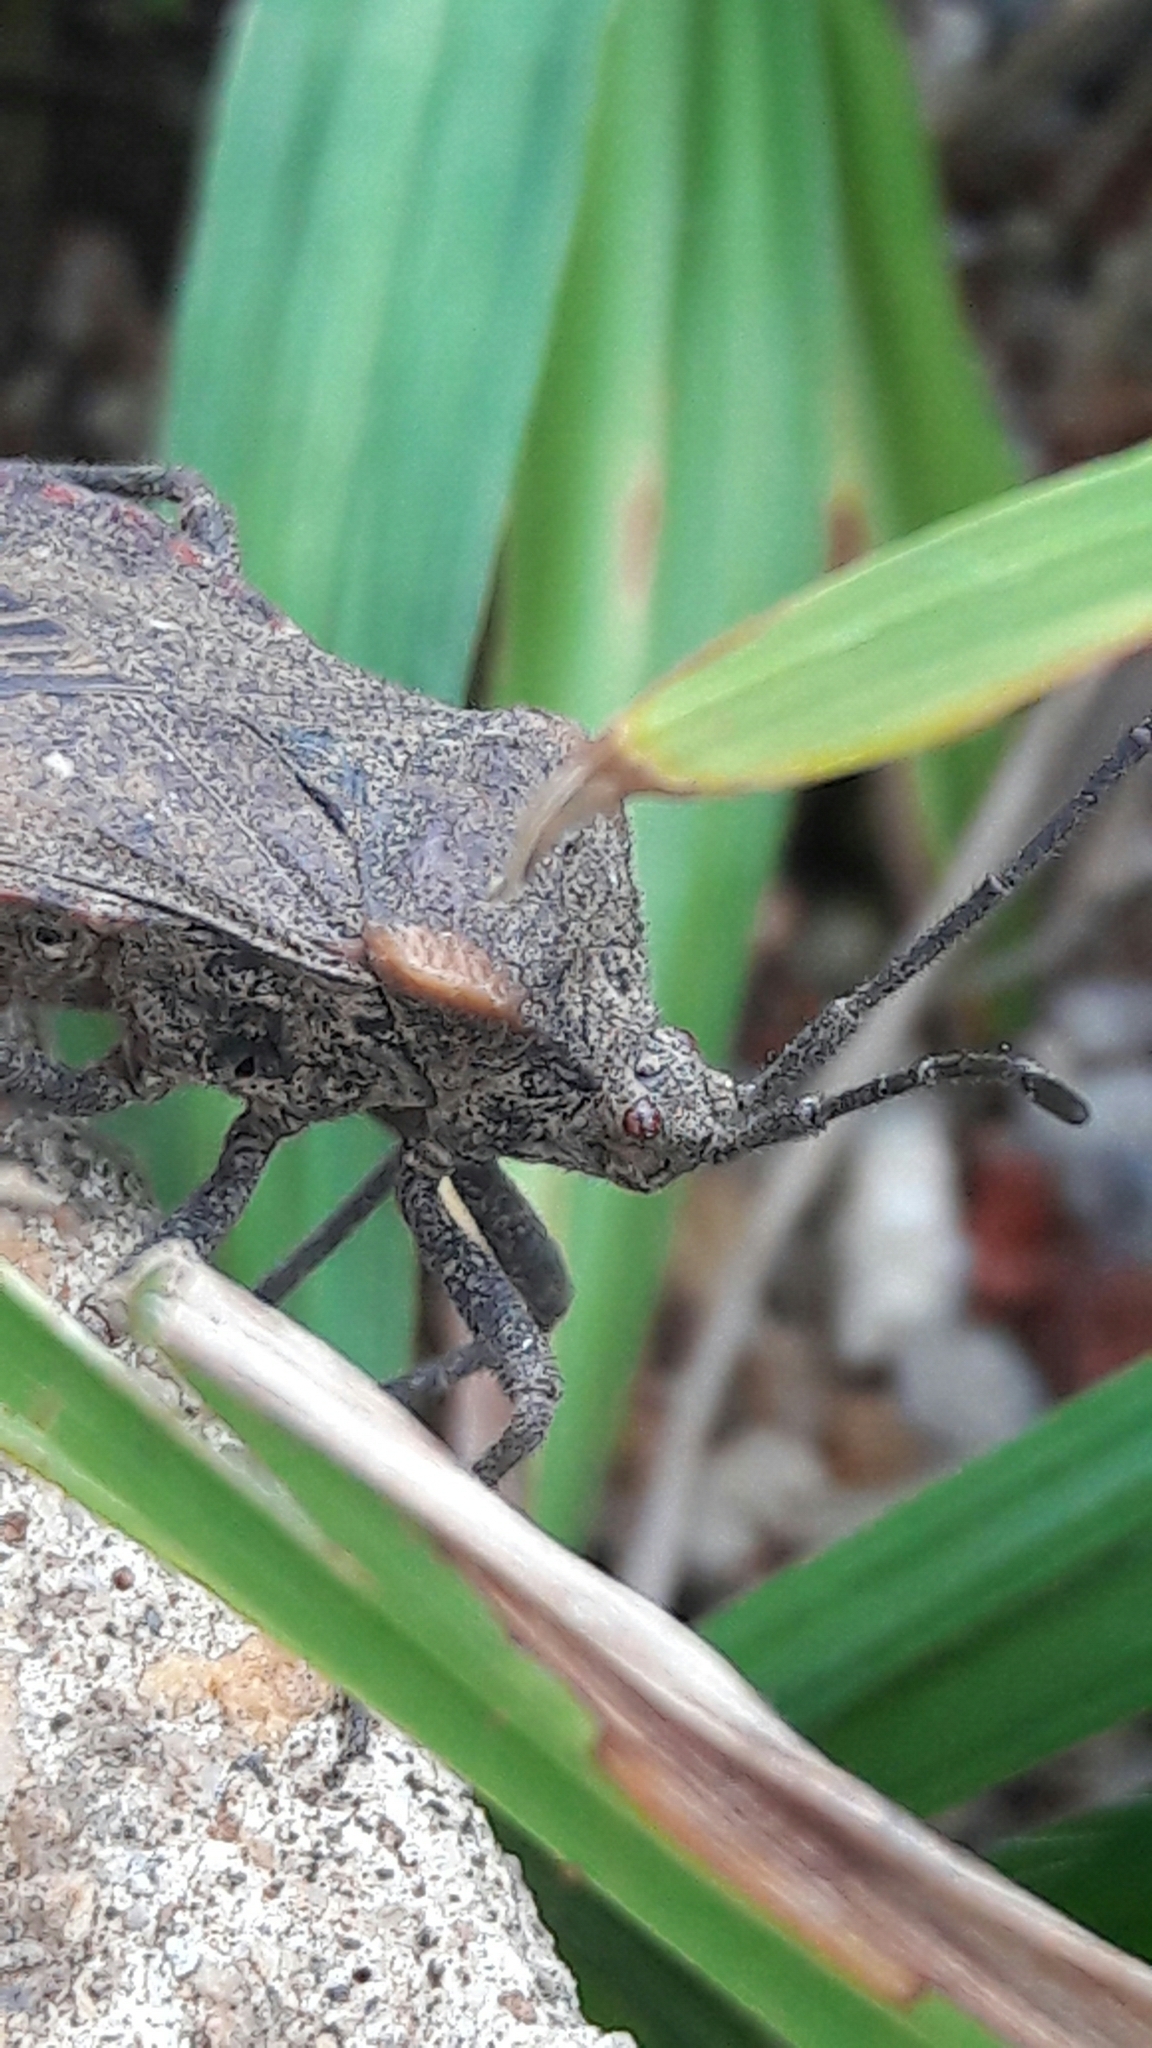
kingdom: Animalia
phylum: Arthropoda
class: Insecta
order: Hemiptera
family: Coreidae
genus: Spartocera
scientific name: Spartocera batatas
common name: Giant sweetpotato bug
